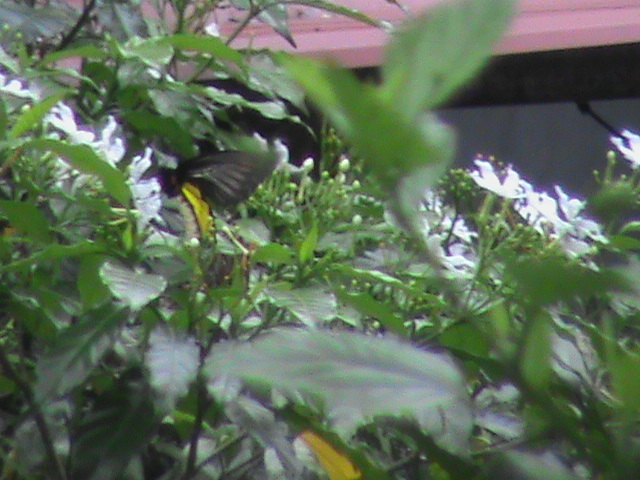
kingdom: Animalia
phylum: Arthropoda
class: Insecta
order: Lepidoptera
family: Papilionidae
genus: Troides
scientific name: Troides minos
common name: Malabar birdwing
